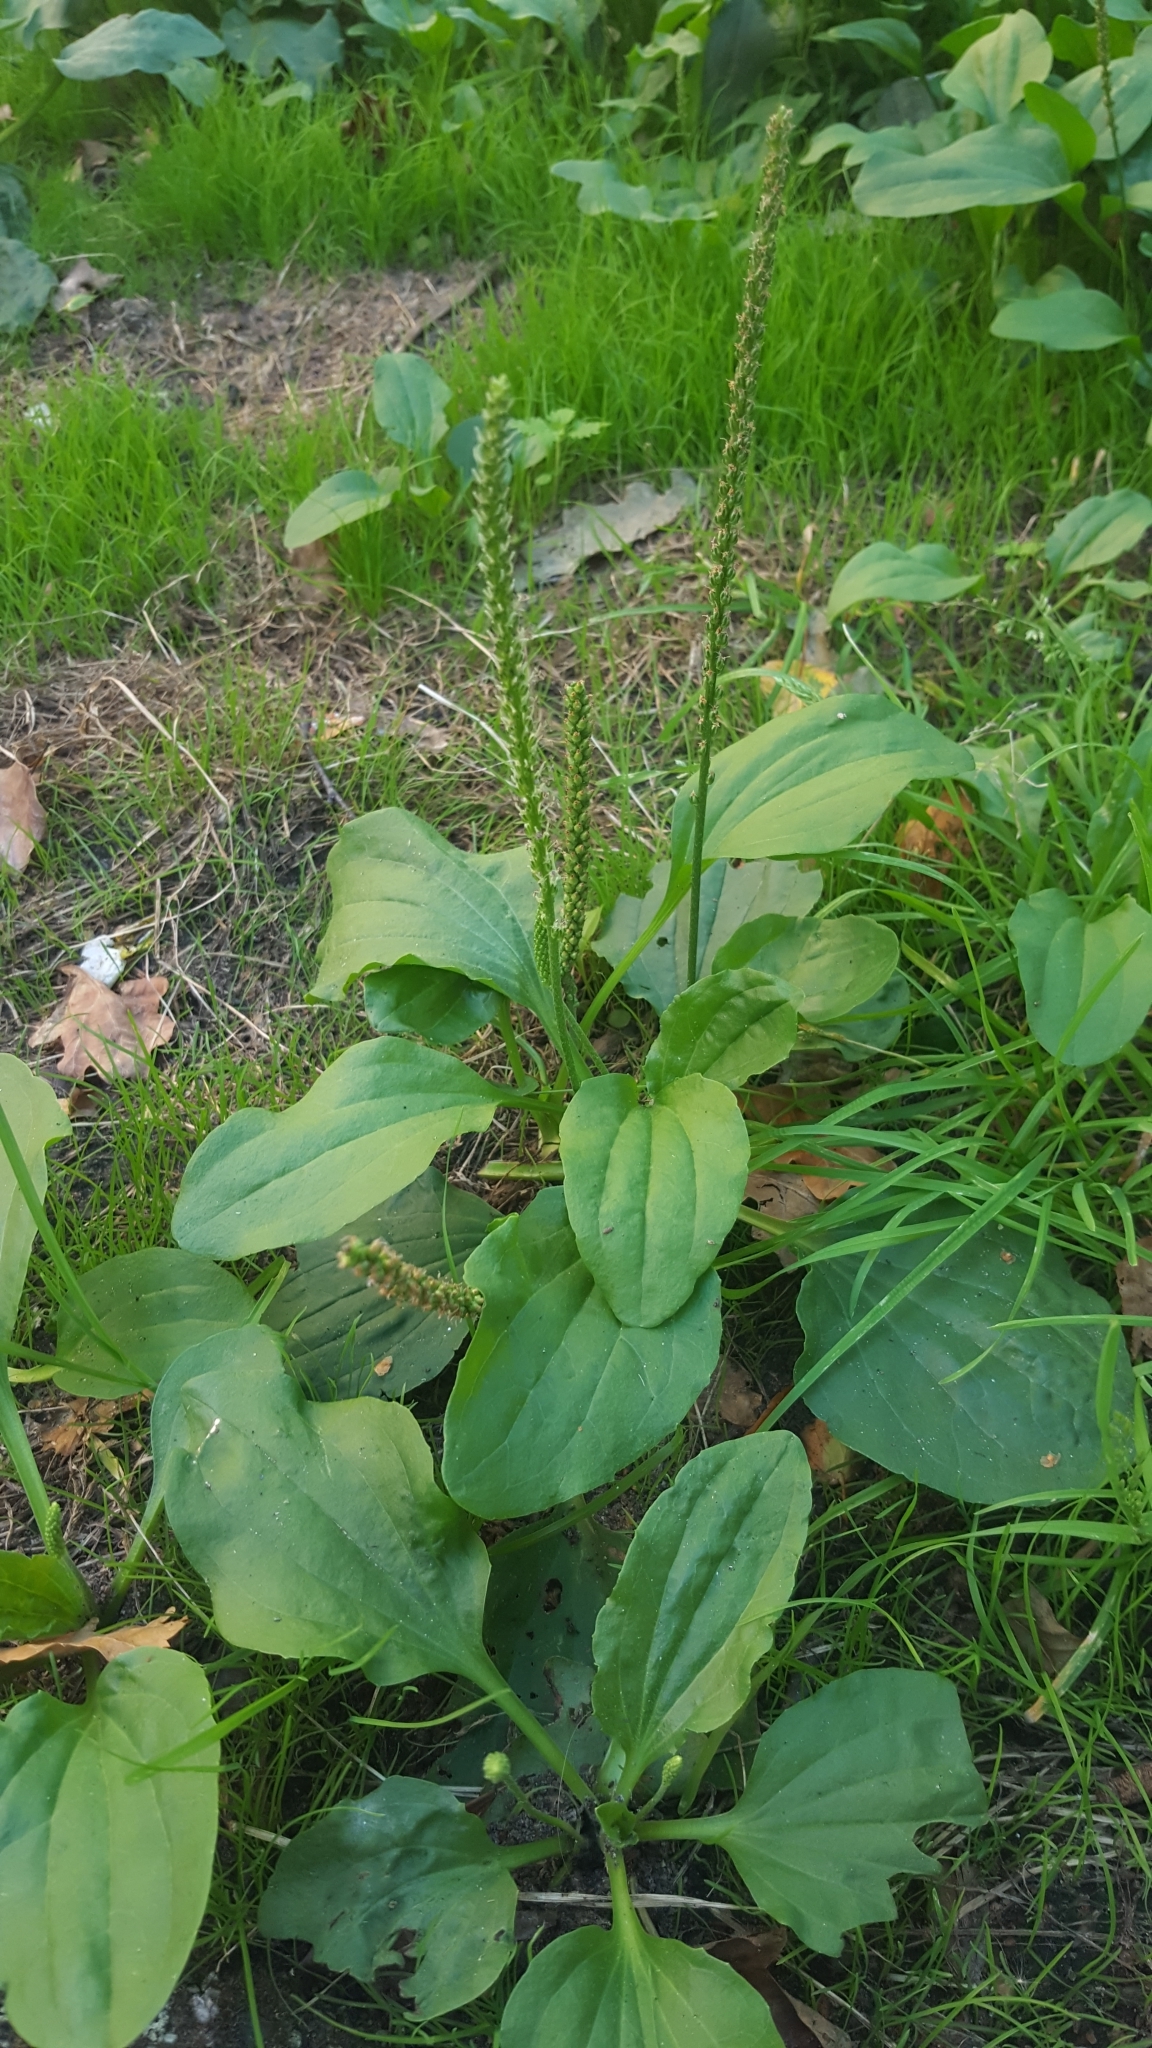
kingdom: Plantae
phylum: Tracheophyta
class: Magnoliopsida
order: Lamiales
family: Plantaginaceae
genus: Plantago
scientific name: Plantago major
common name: Common plantain
